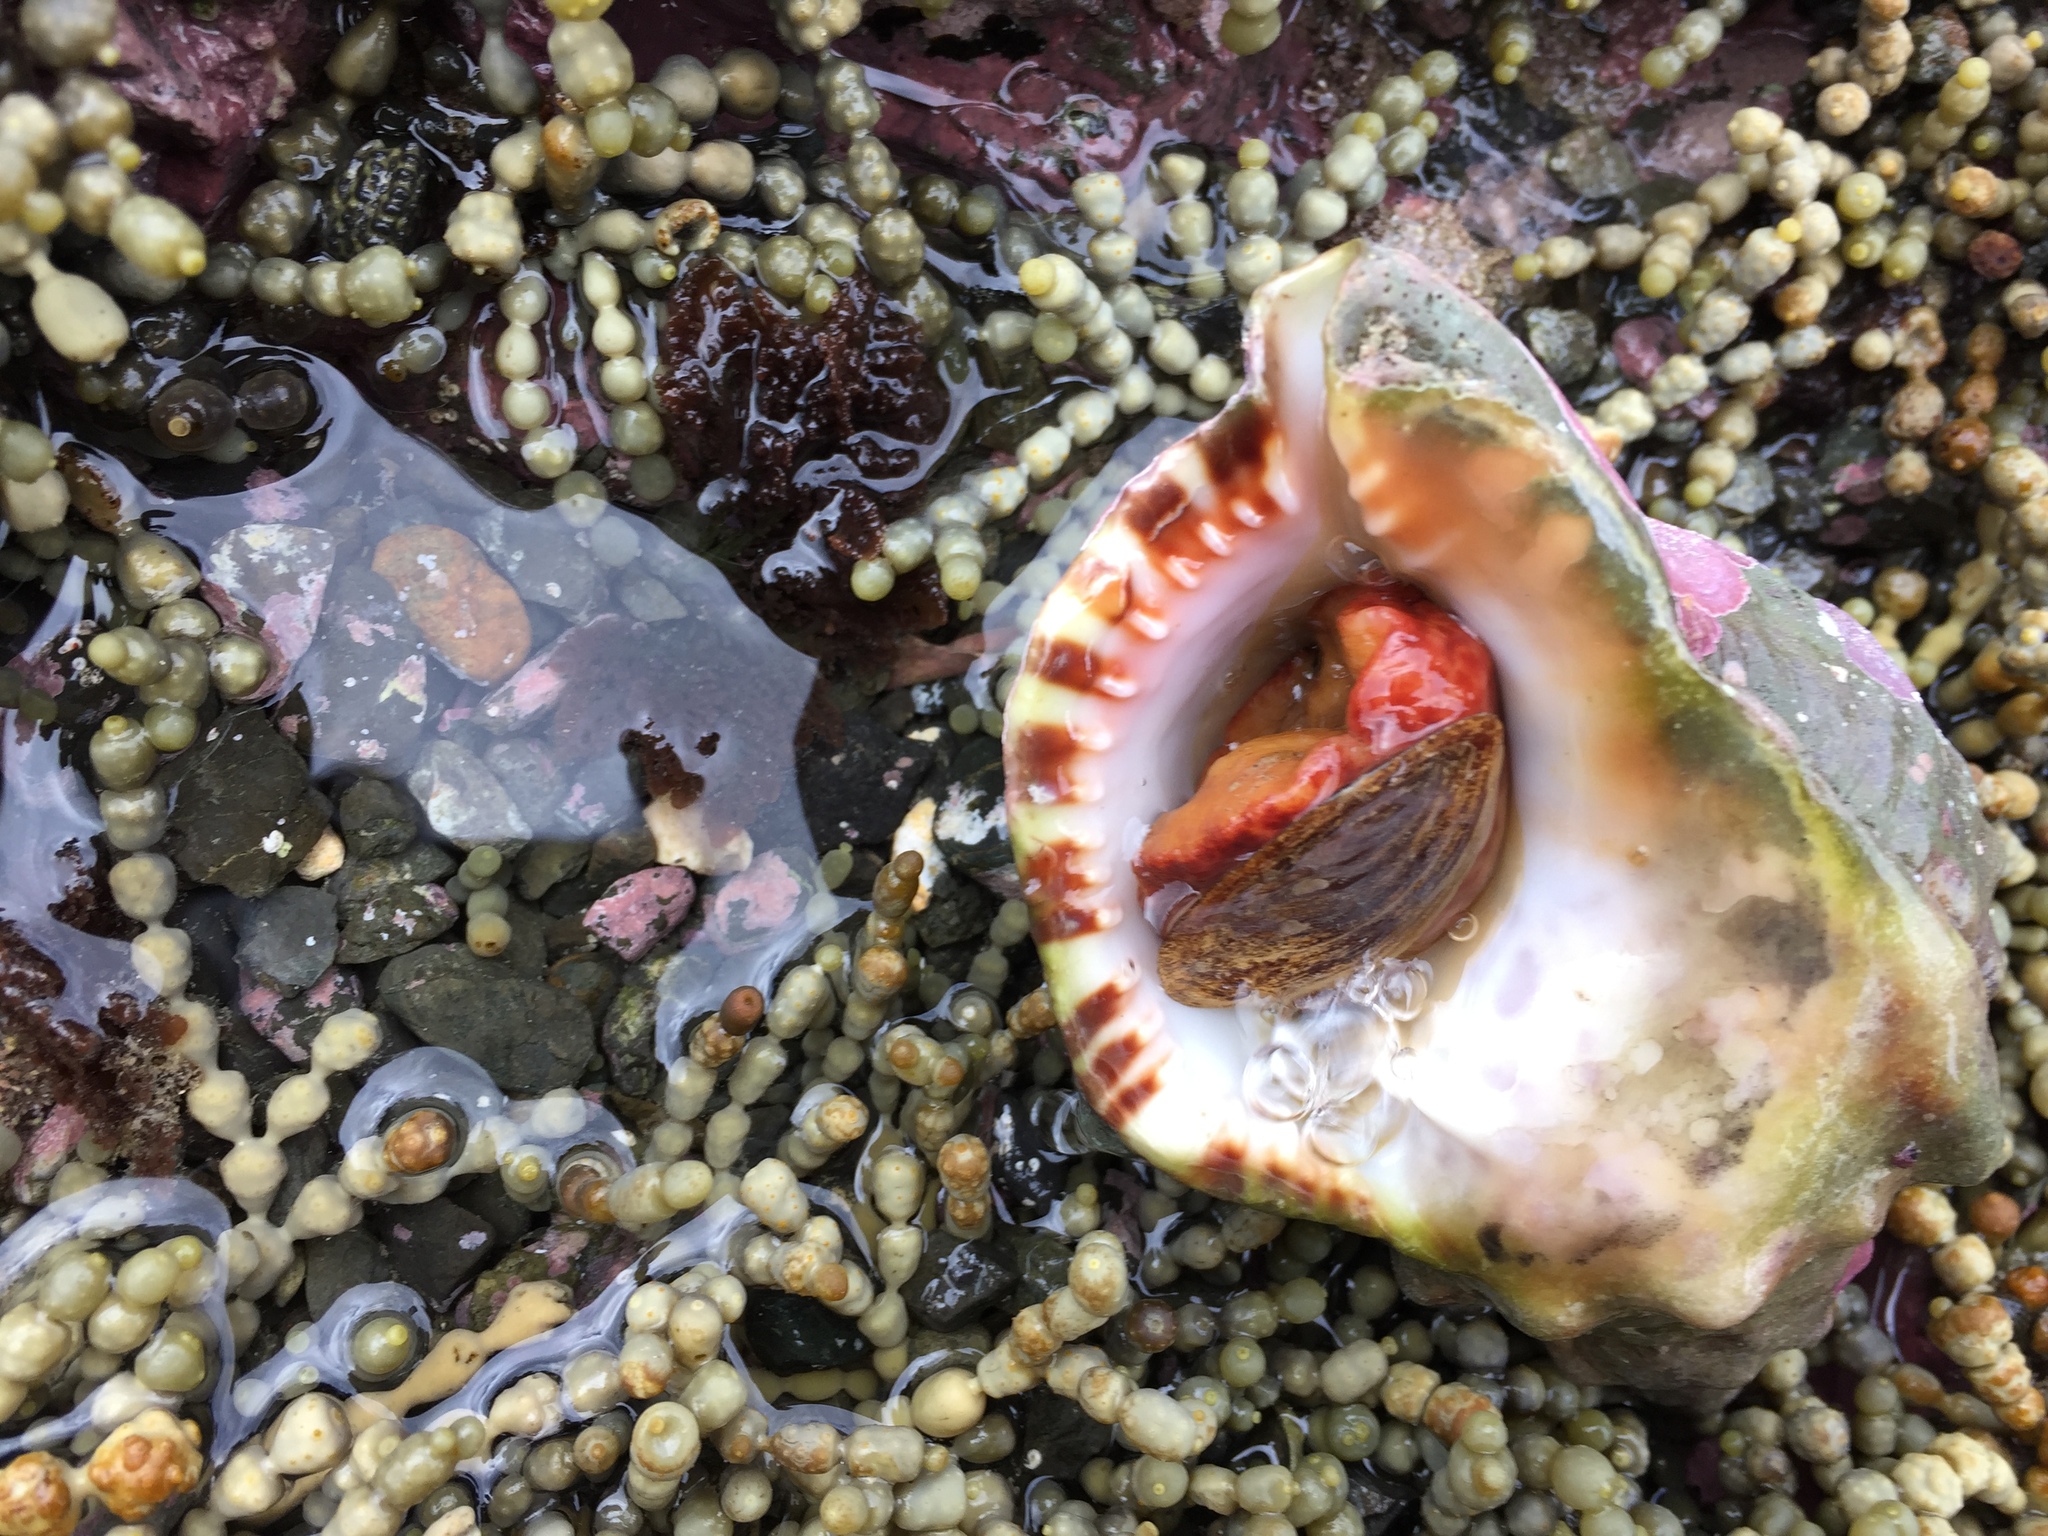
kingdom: Animalia
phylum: Mollusca
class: Gastropoda
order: Littorinimorpha
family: Charoniidae
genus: Charonia
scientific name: Charonia lampas
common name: Knobbed triton
